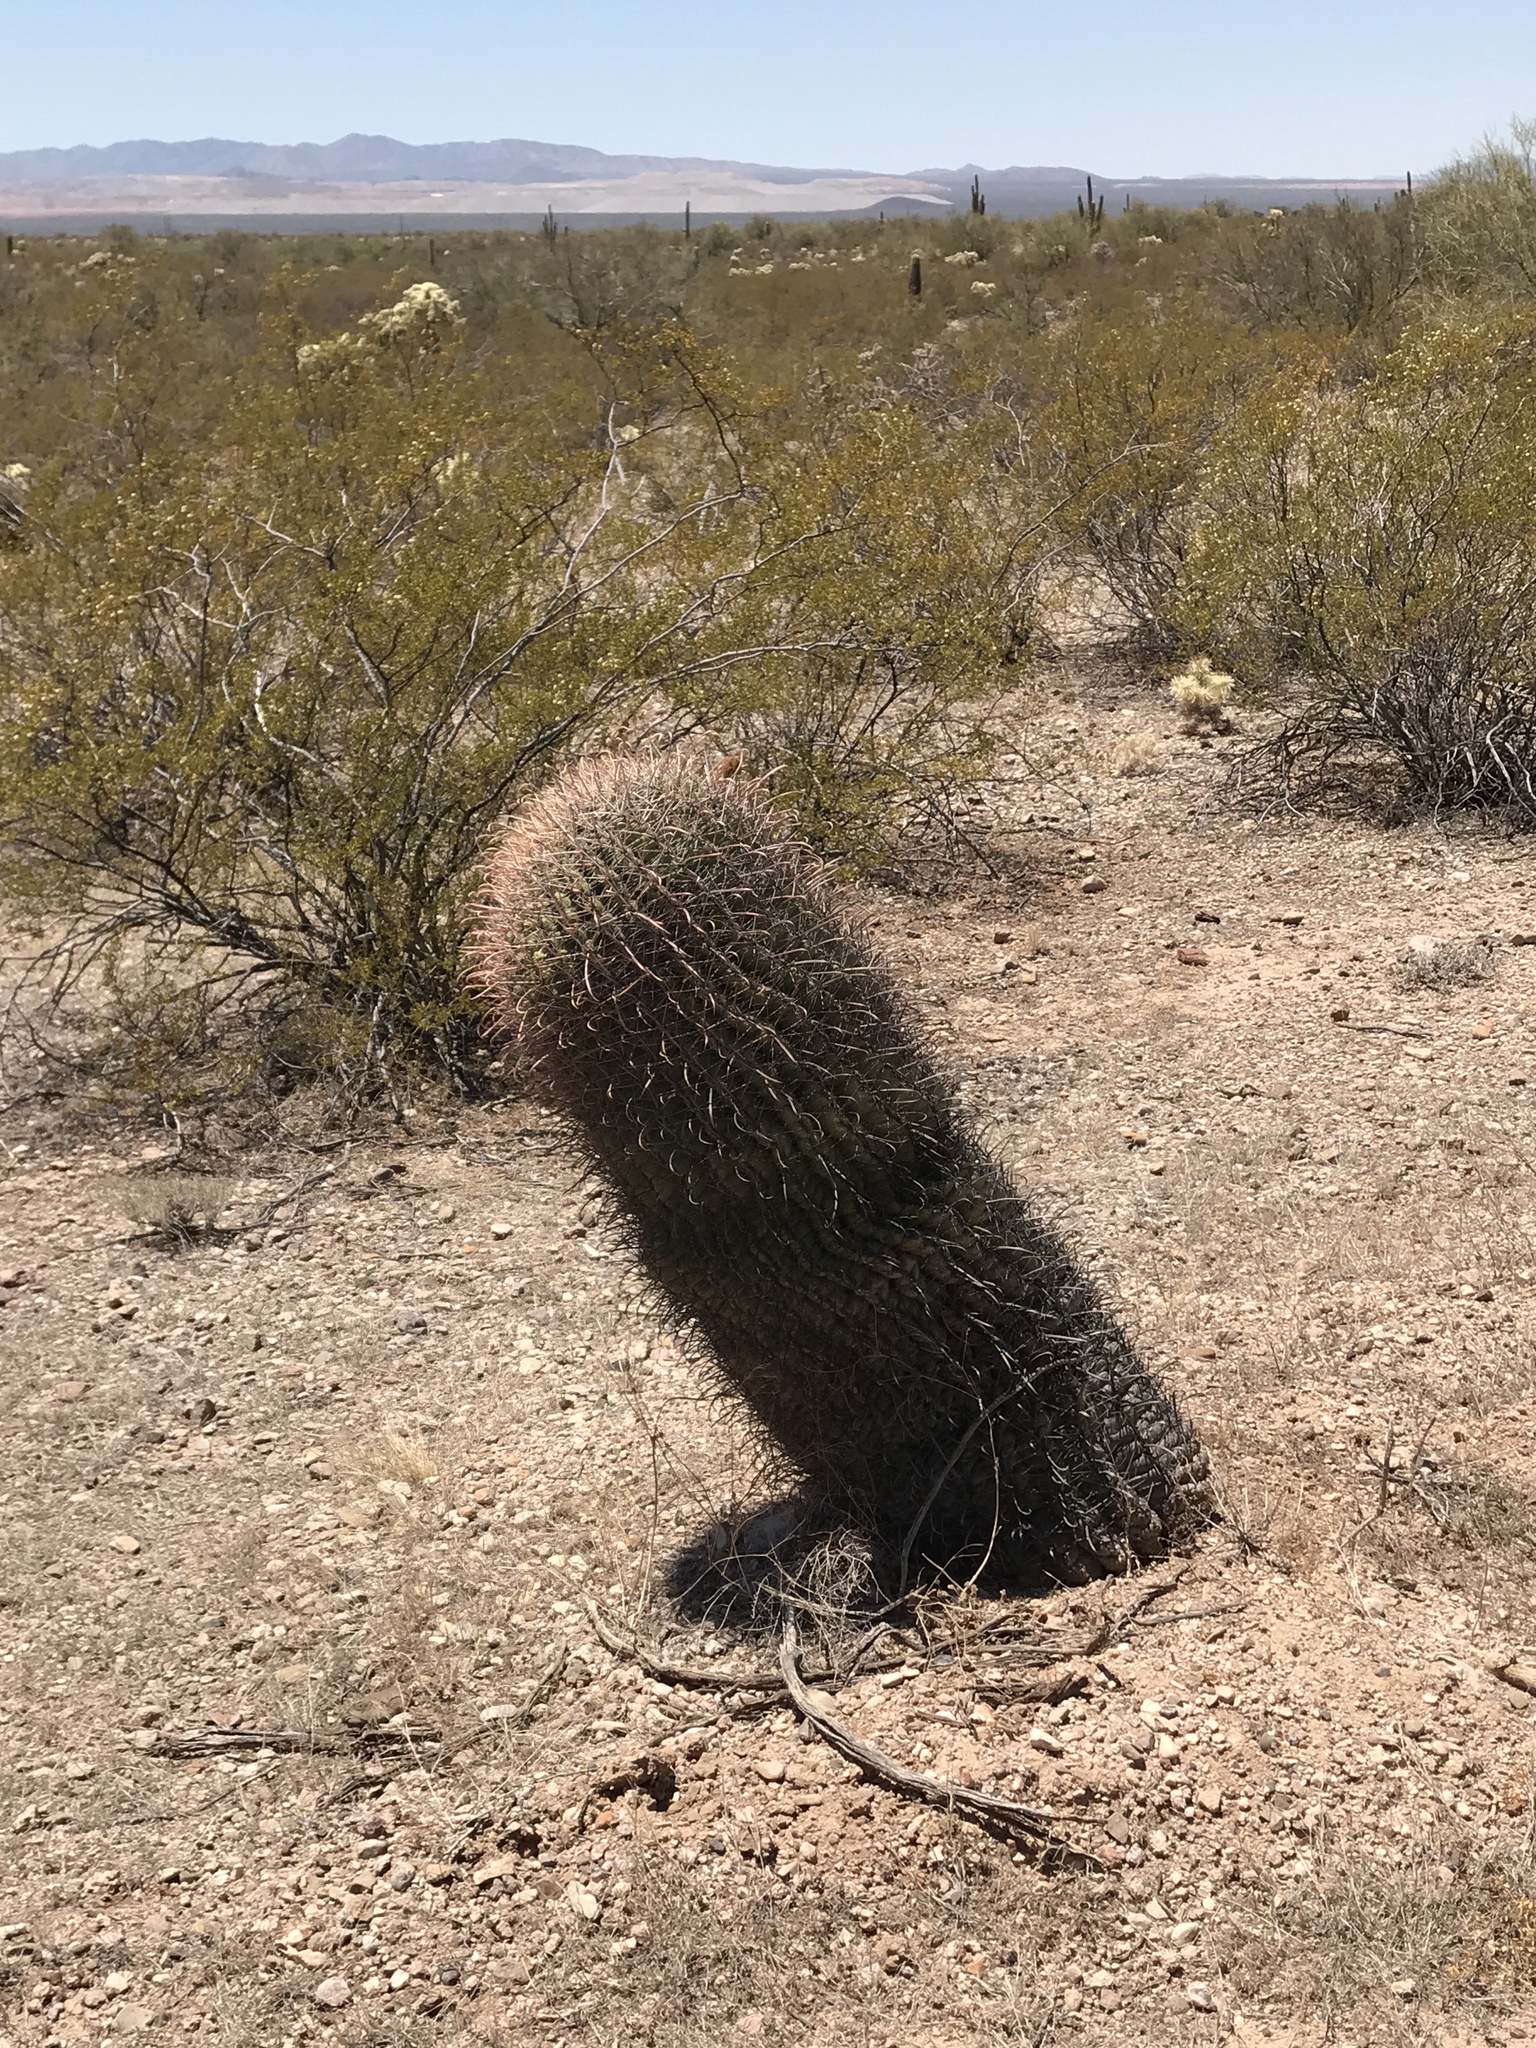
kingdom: Plantae
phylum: Tracheophyta
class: Magnoliopsida
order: Caryophyllales
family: Cactaceae
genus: Ferocactus
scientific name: Ferocactus wislizeni
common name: Candy barrel cactus
